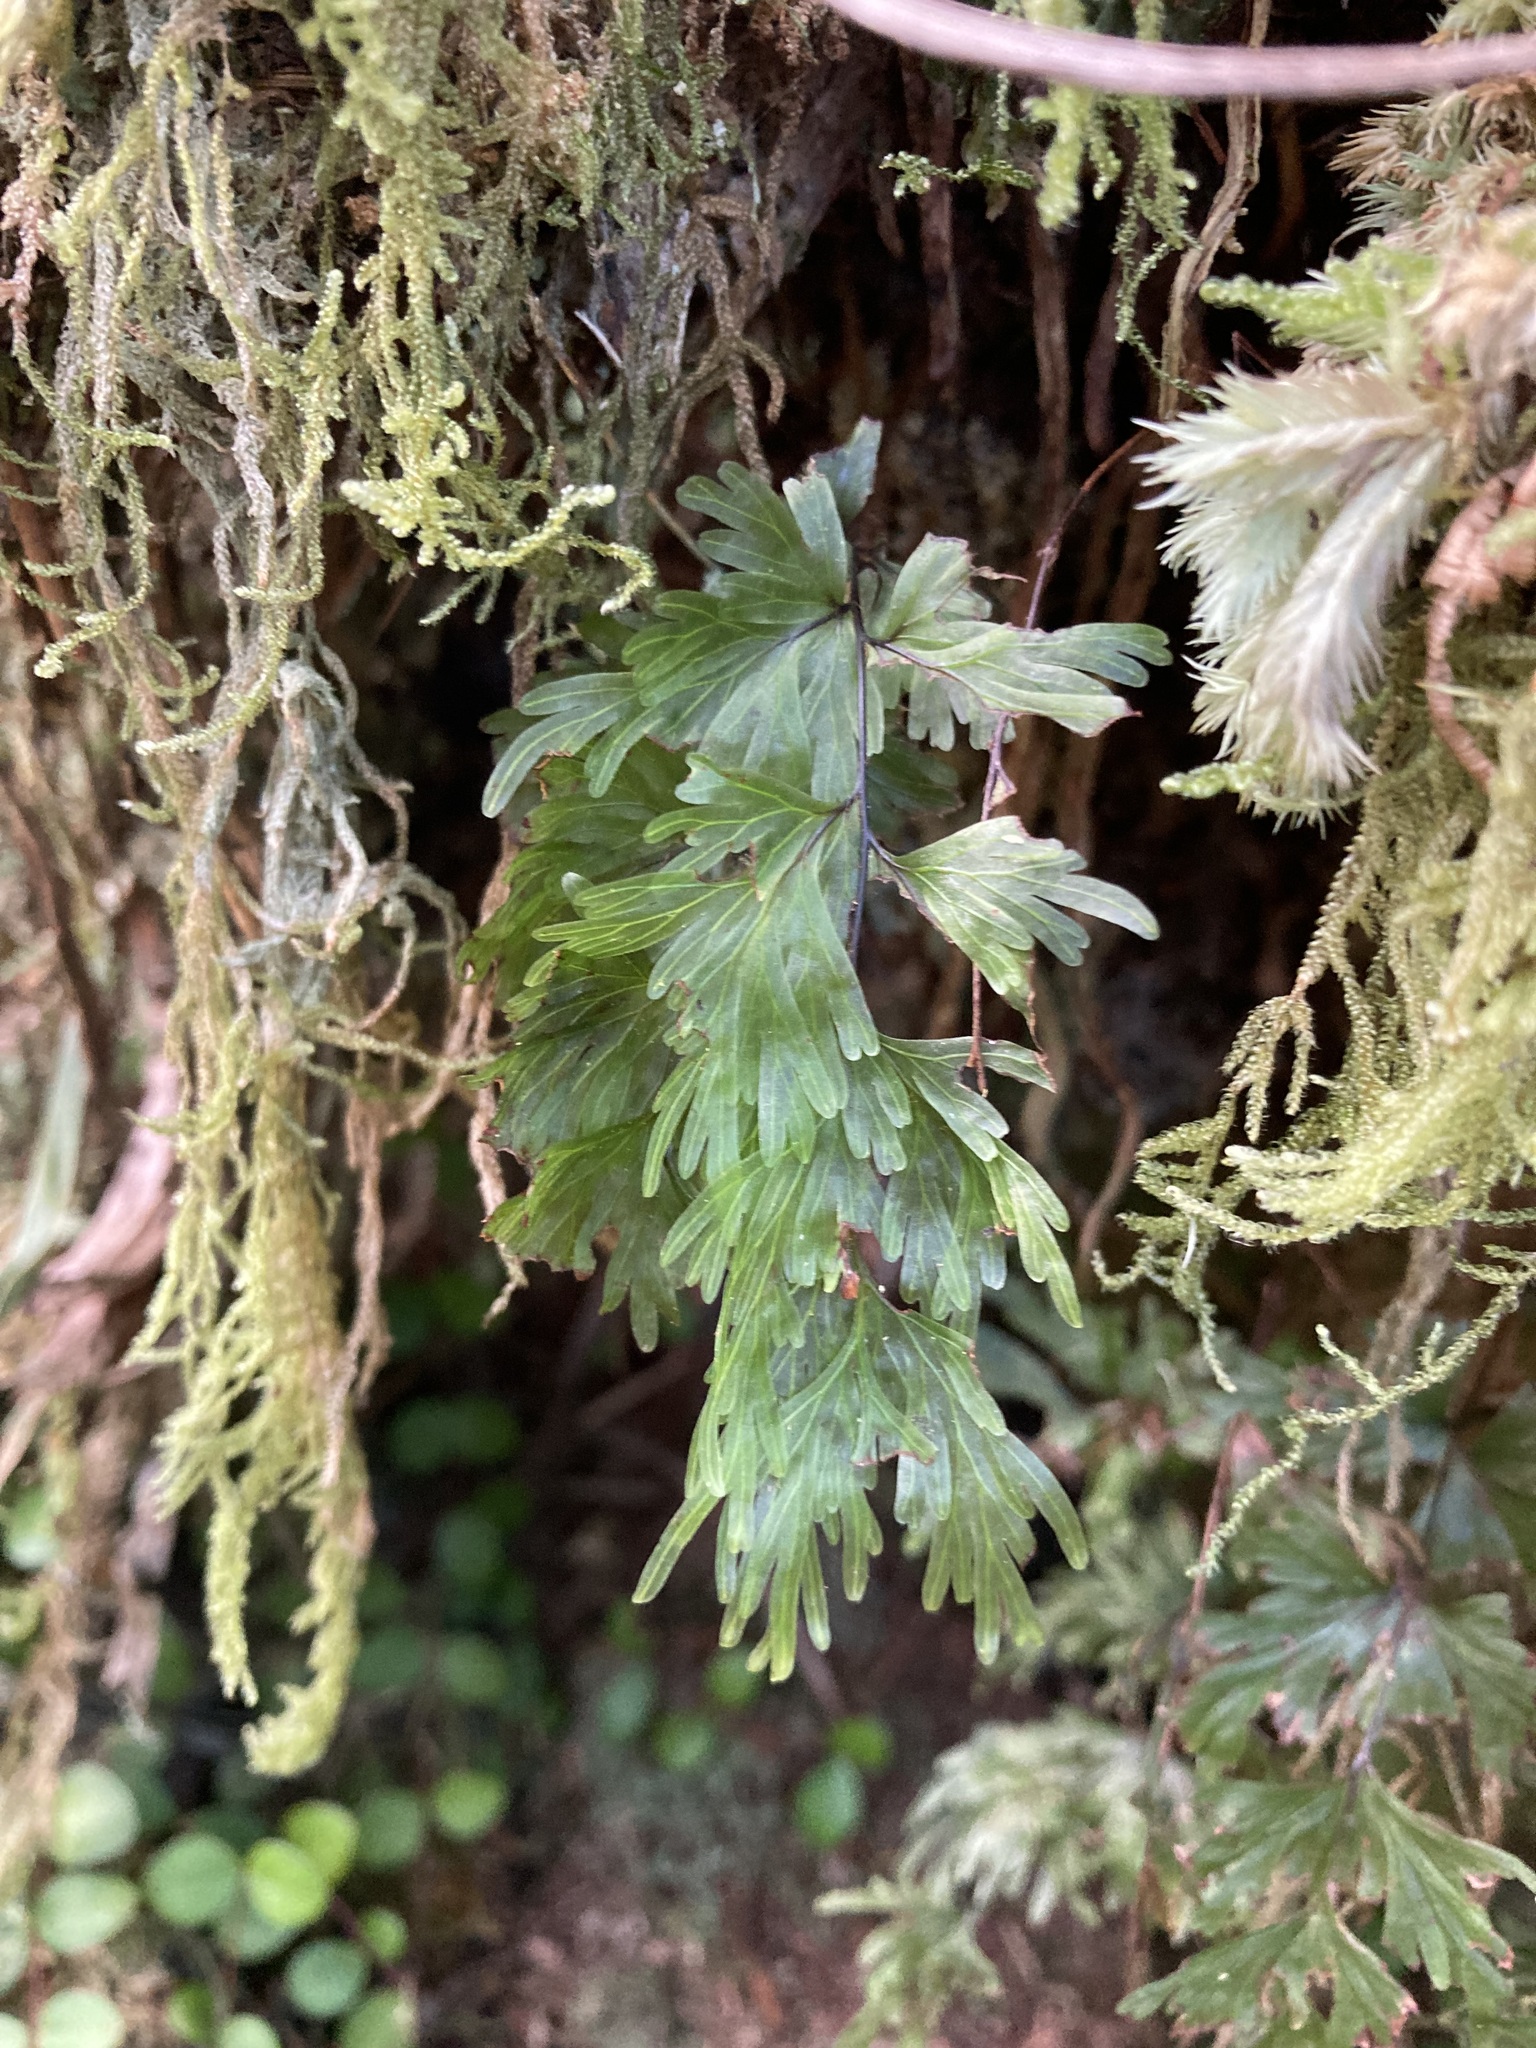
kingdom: Plantae
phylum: Tracheophyta
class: Polypodiopsida
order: Hymenophyllales
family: Hymenophyllaceae
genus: Hymenophyllum
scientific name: Hymenophyllum flabellatum
